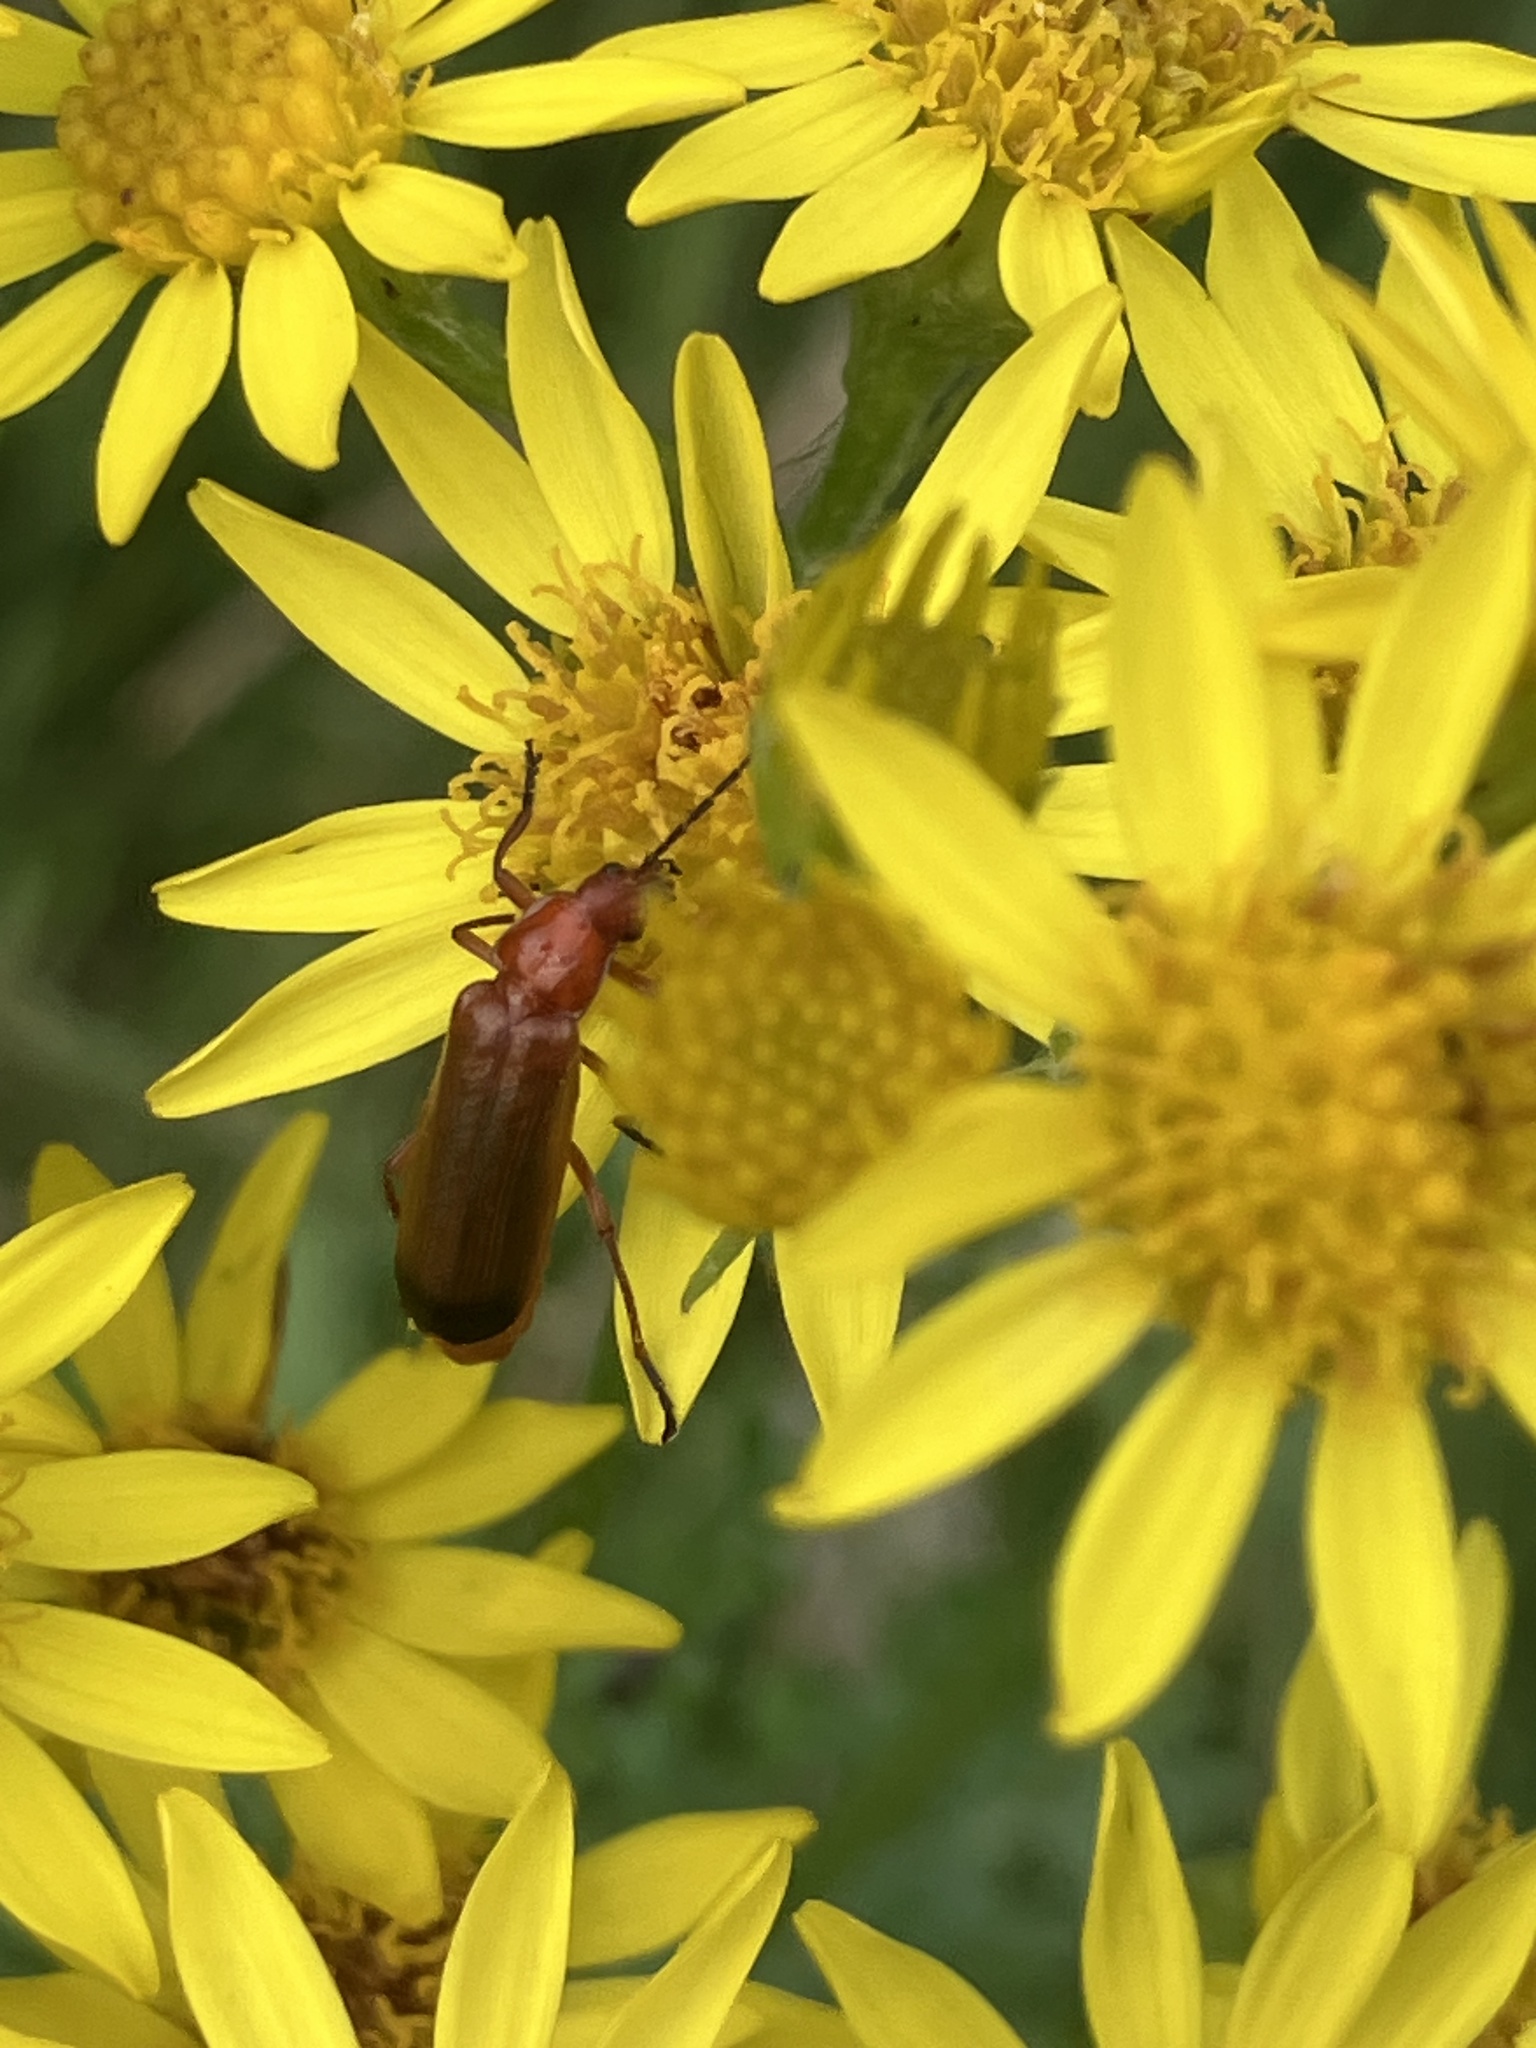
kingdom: Animalia
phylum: Arthropoda
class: Insecta
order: Coleoptera
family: Cantharidae
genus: Rhagonycha
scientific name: Rhagonycha fulva
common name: Common red soldier beetle
